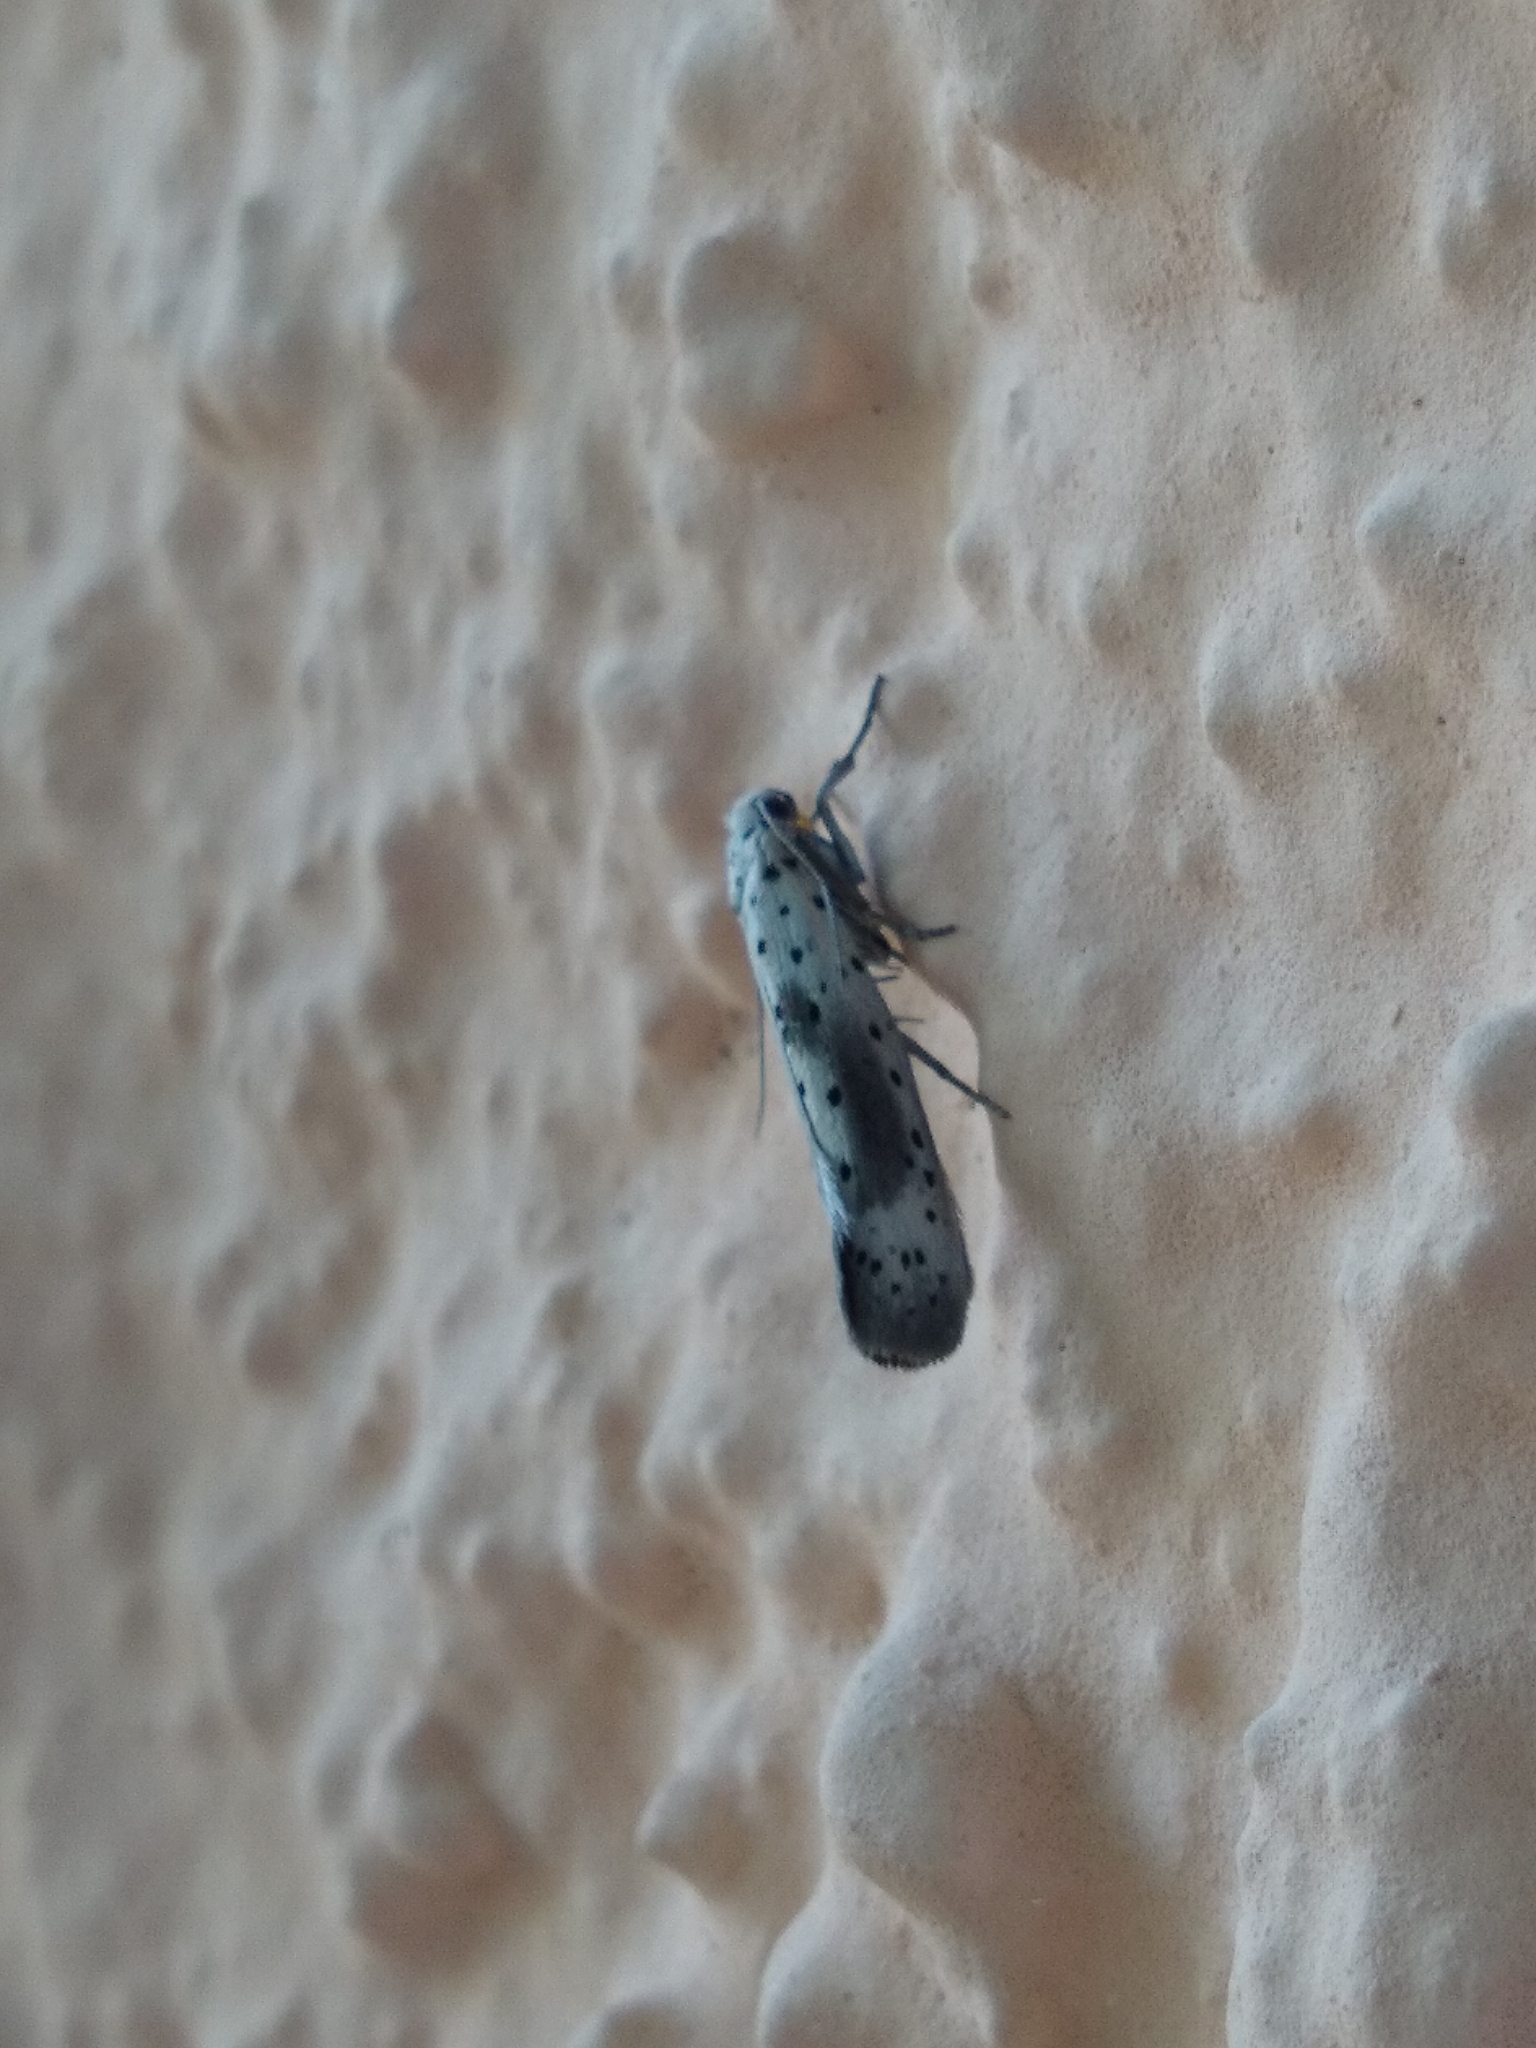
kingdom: Animalia
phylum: Arthropoda
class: Insecta
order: Lepidoptera
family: Yponomeutidae
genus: Yponomeuta
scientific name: Yponomeuta irrorella
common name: Scarce ermine
